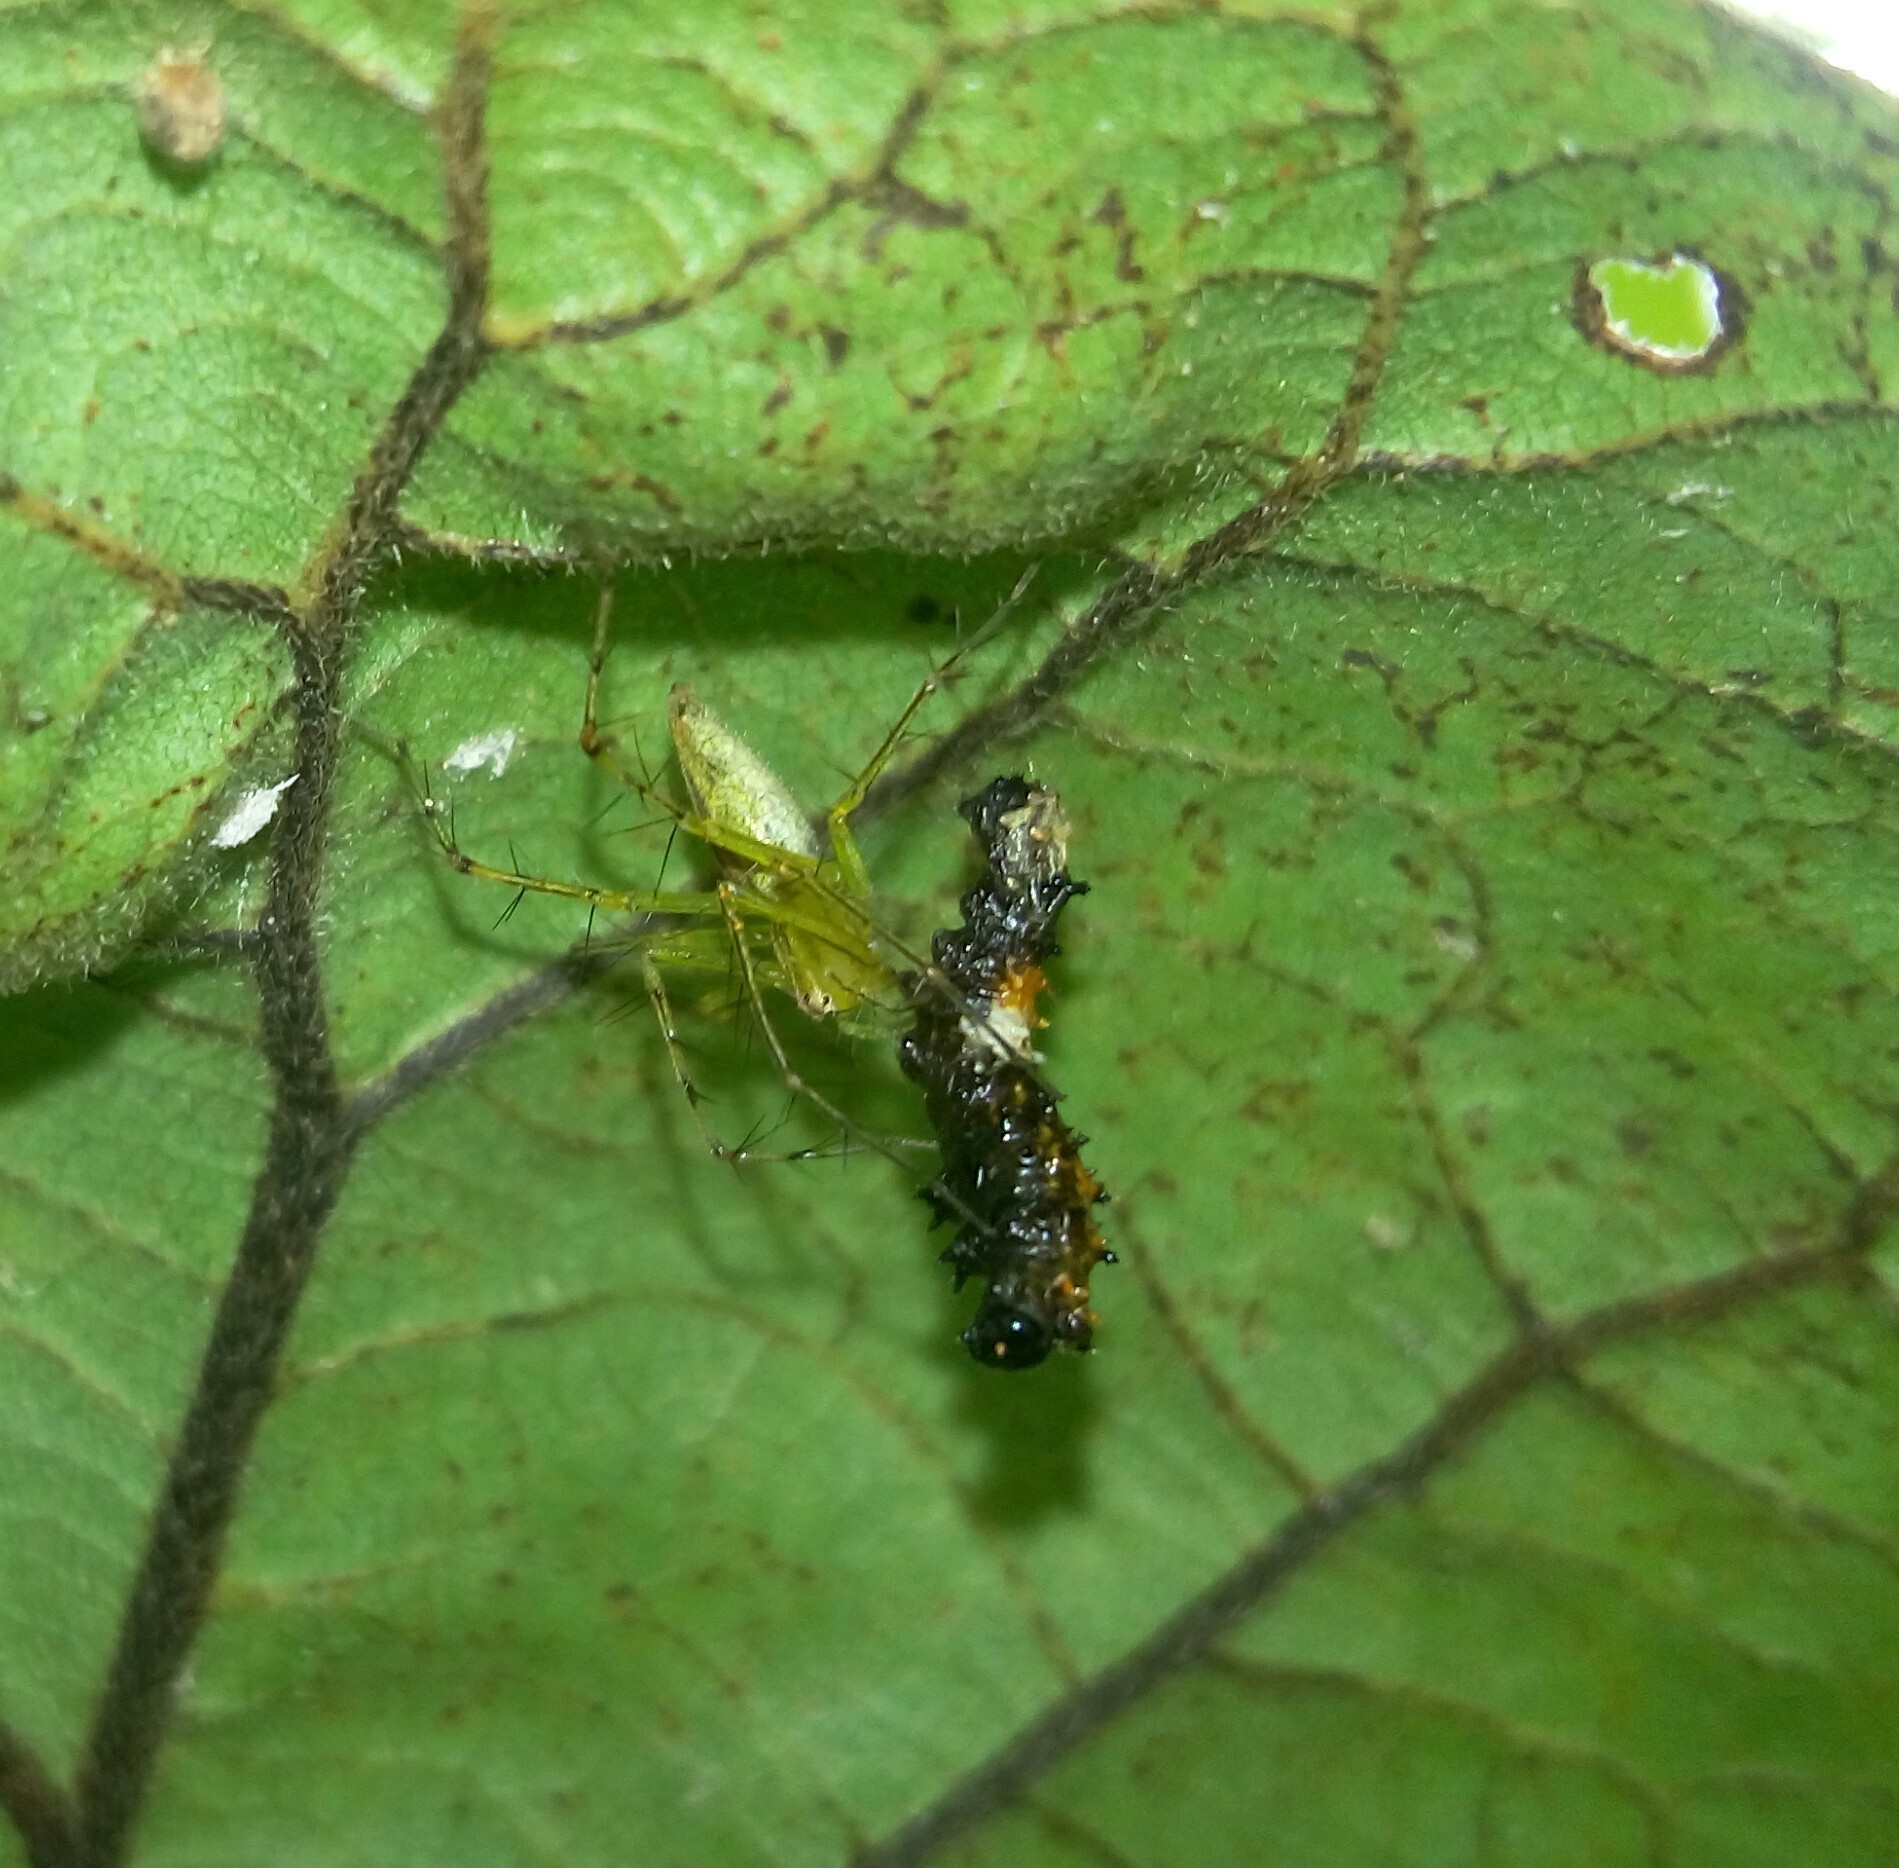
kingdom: Animalia
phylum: Arthropoda
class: Insecta
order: Lepidoptera
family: Papilionidae
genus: Chilasa
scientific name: Chilasa clytia
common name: Common mime
